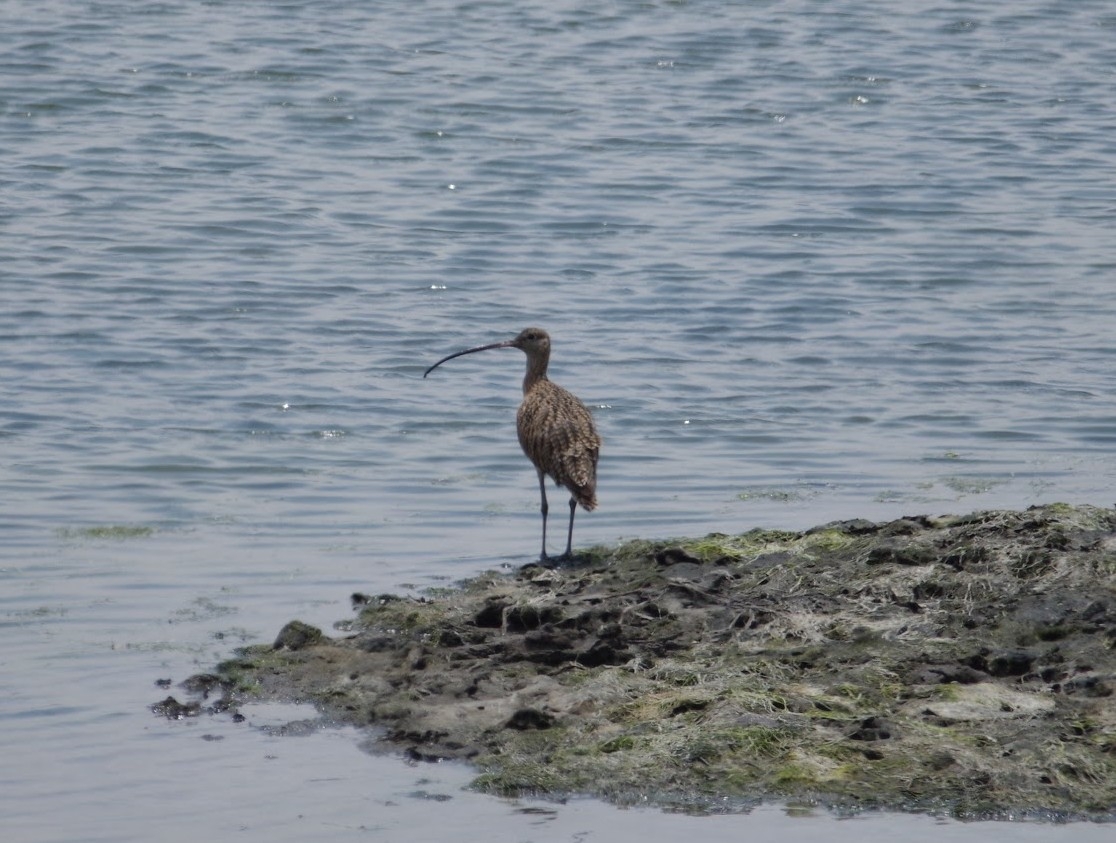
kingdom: Animalia
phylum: Chordata
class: Aves
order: Charadriiformes
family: Scolopacidae
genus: Numenius
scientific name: Numenius americanus
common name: Long-billed curlew
